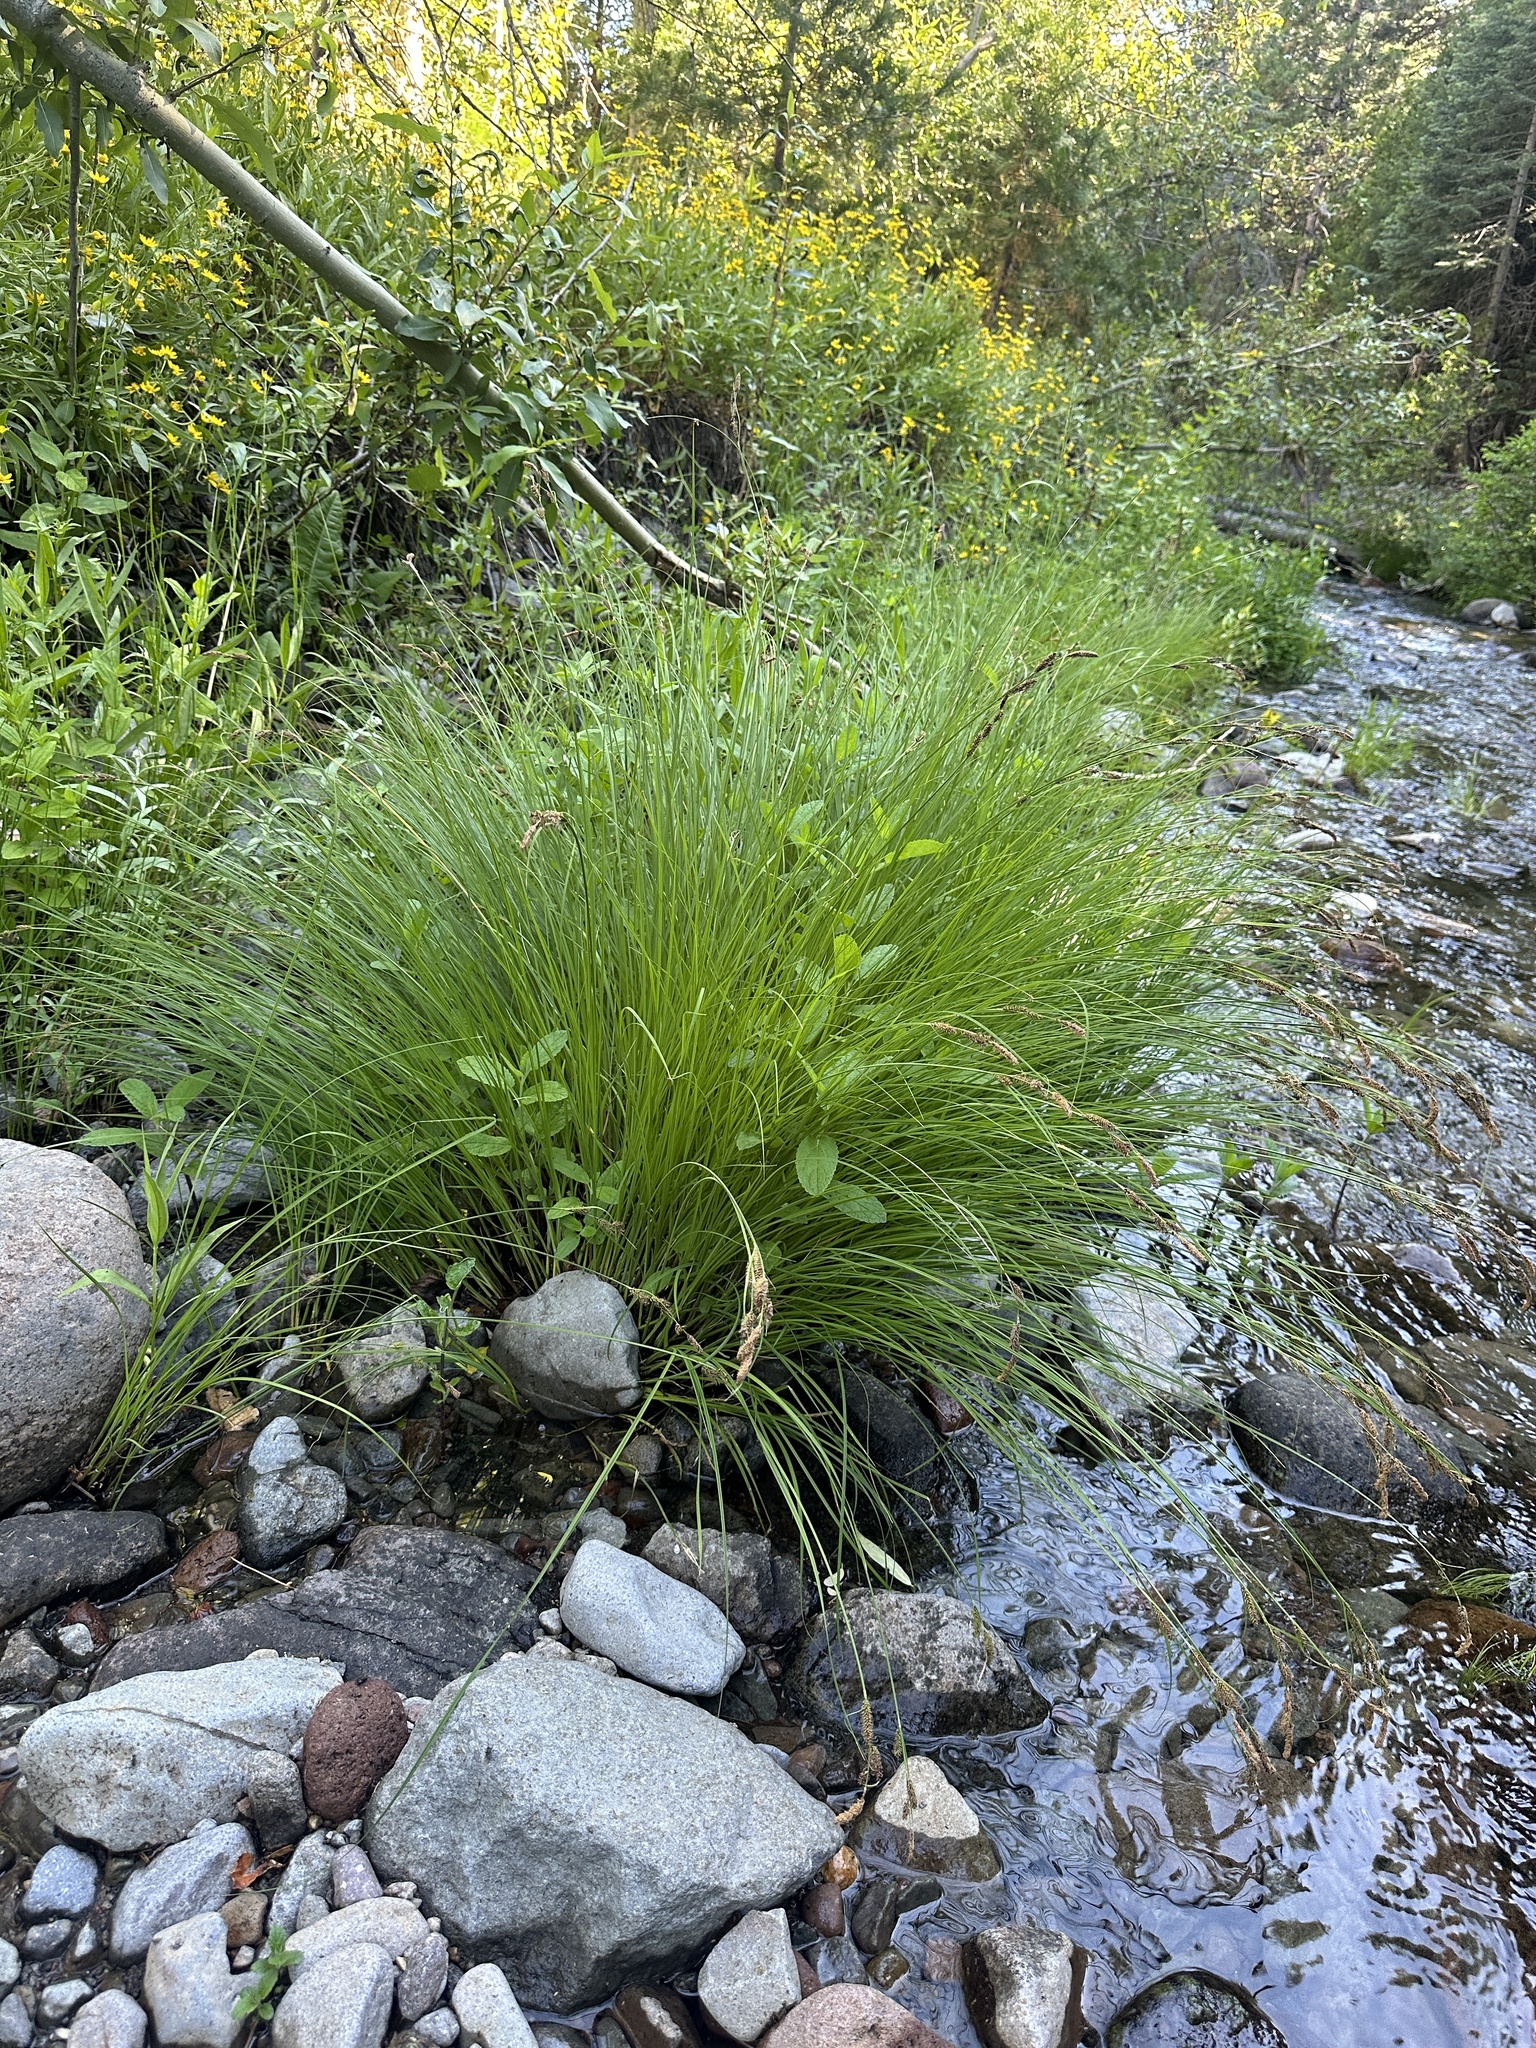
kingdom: Plantae
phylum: Tracheophyta
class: Liliopsida
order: Poales
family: Cyperaceae
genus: Carex
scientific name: Carex nudata
